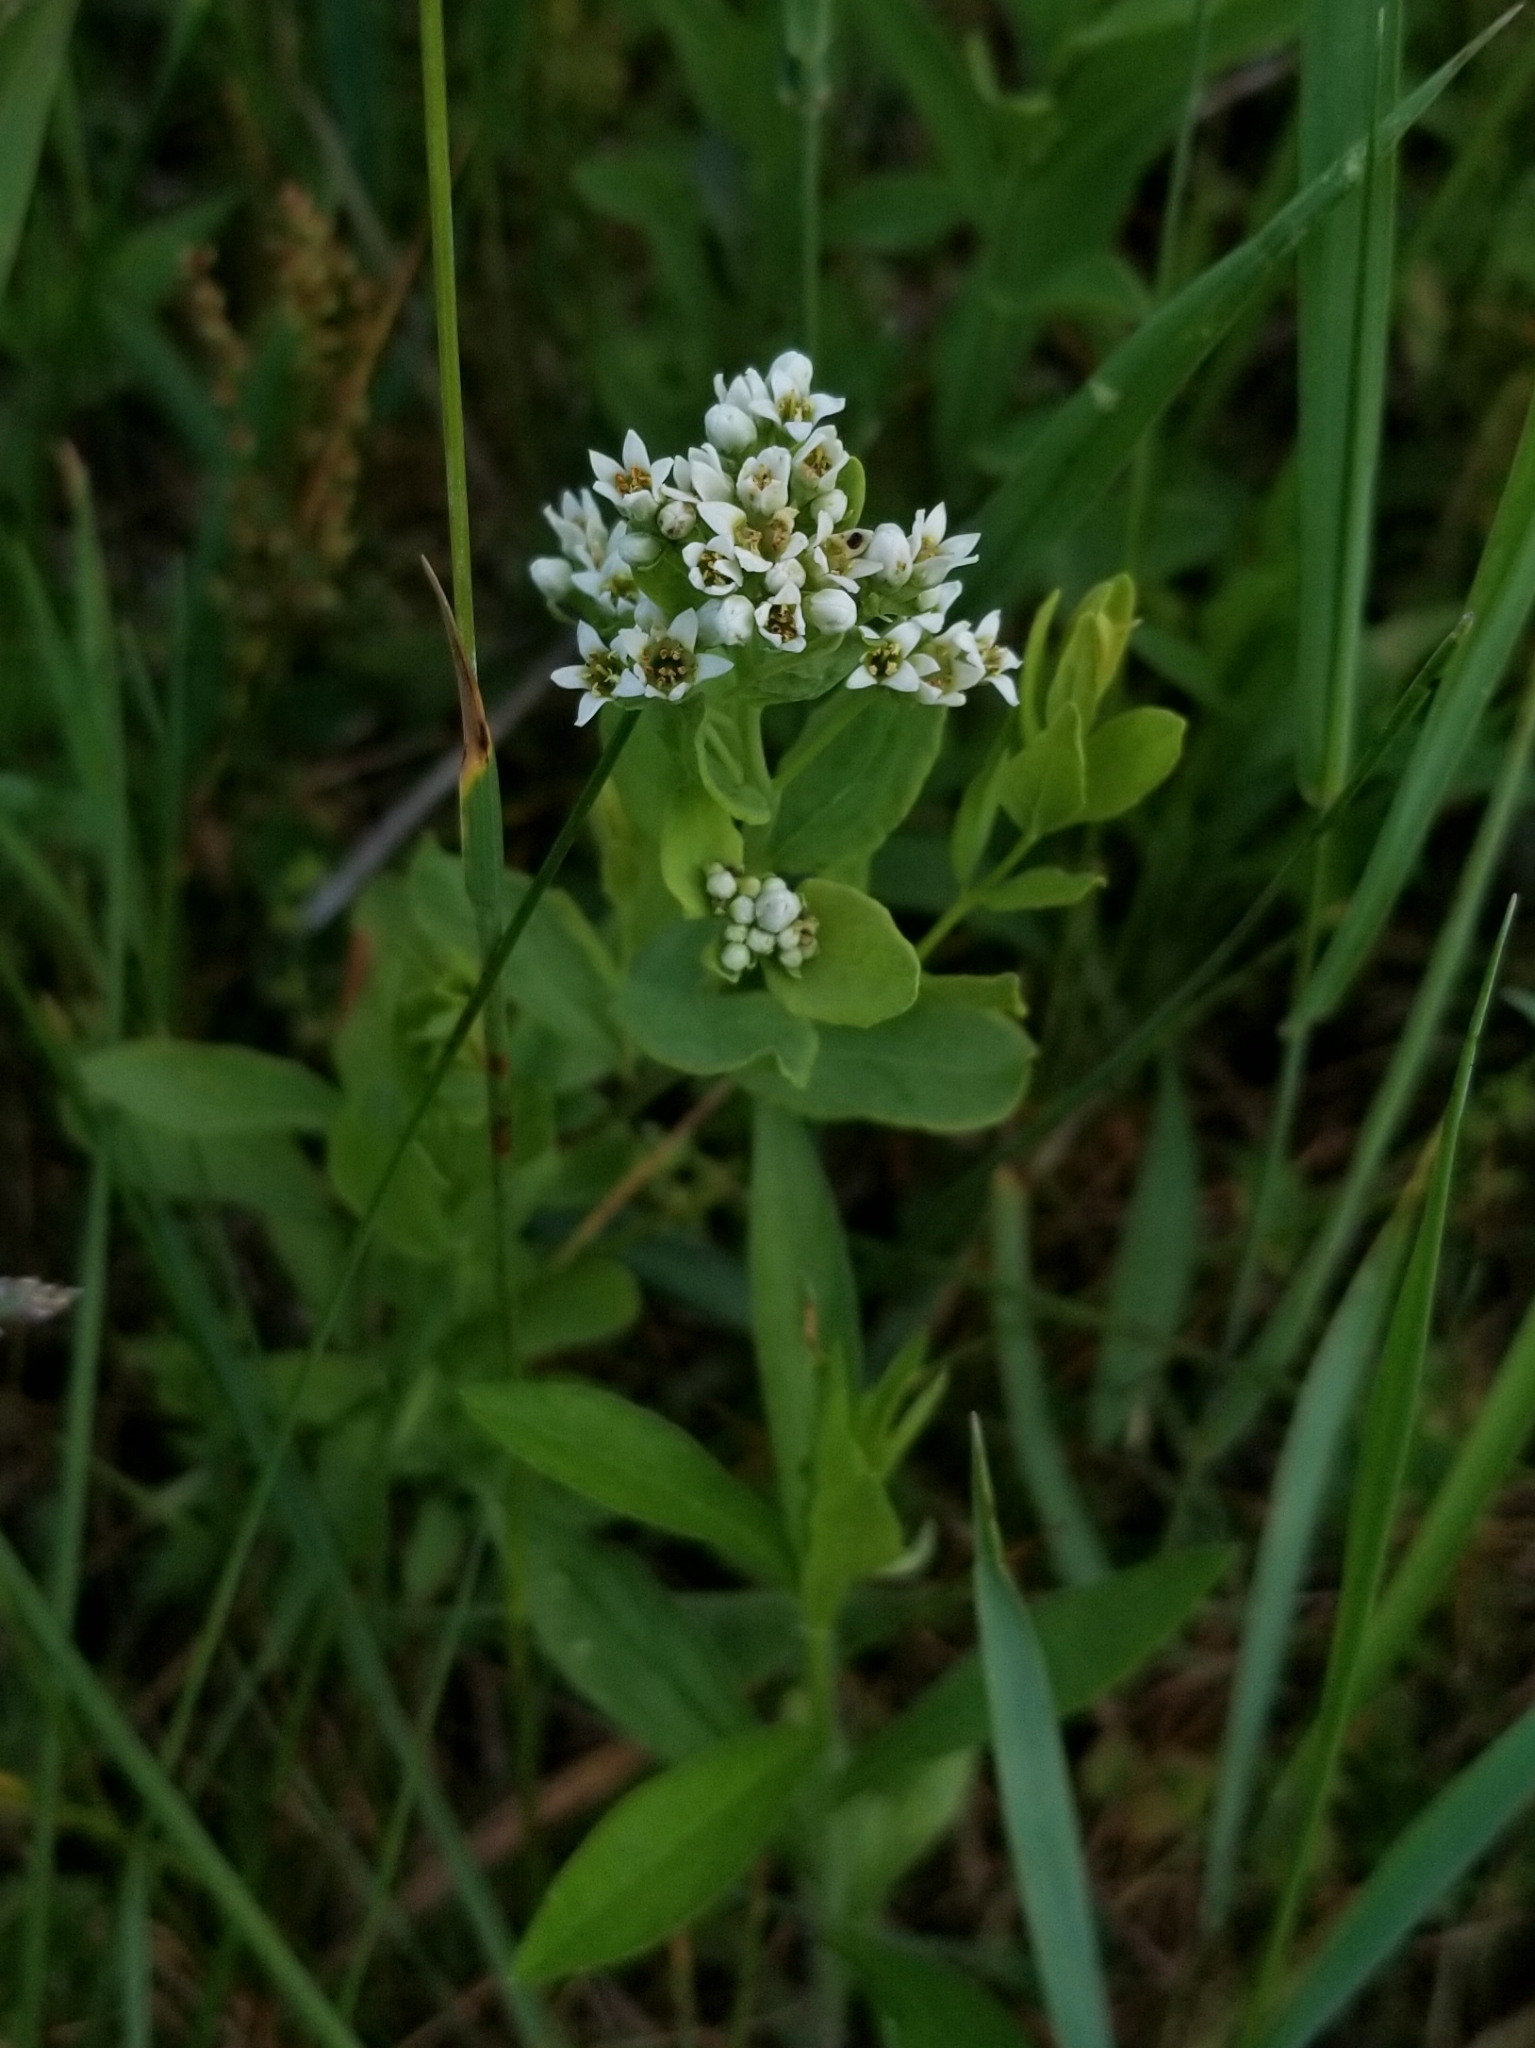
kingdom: Plantae
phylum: Tracheophyta
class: Magnoliopsida
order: Santalales
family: Comandraceae
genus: Comandra
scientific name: Comandra umbellata
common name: Bastard toadflax
